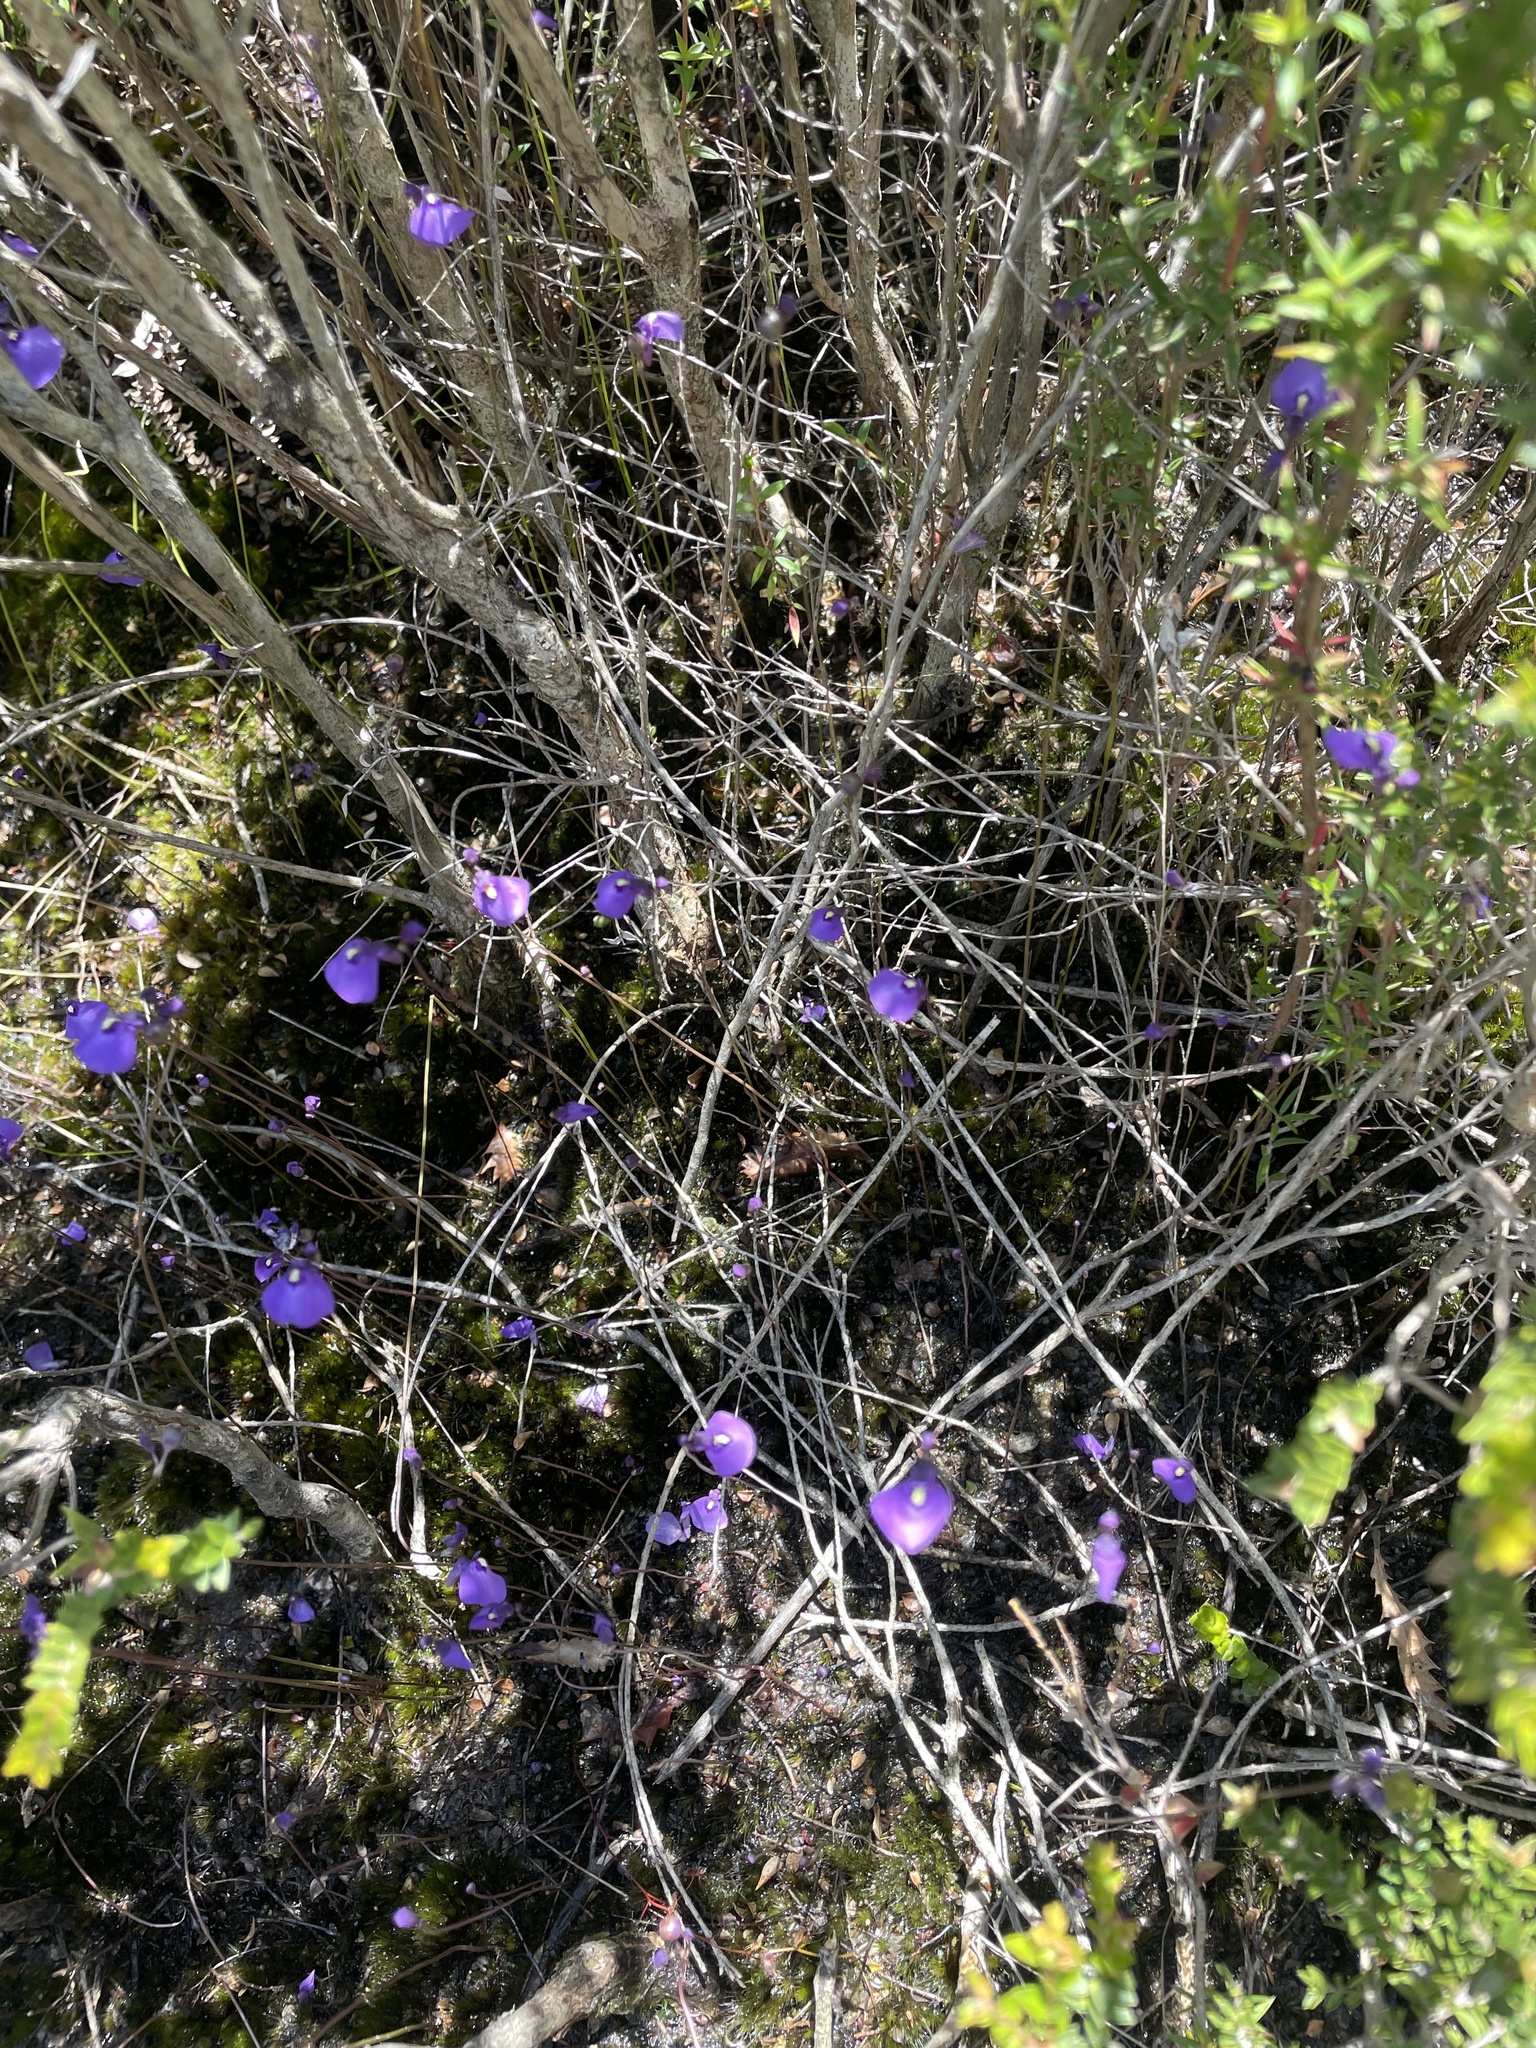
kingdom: Plantae
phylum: Tracheophyta
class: Magnoliopsida
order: Lamiales
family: Lentibulariaceae
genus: Utricularia
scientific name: Utricularia dichotoma
